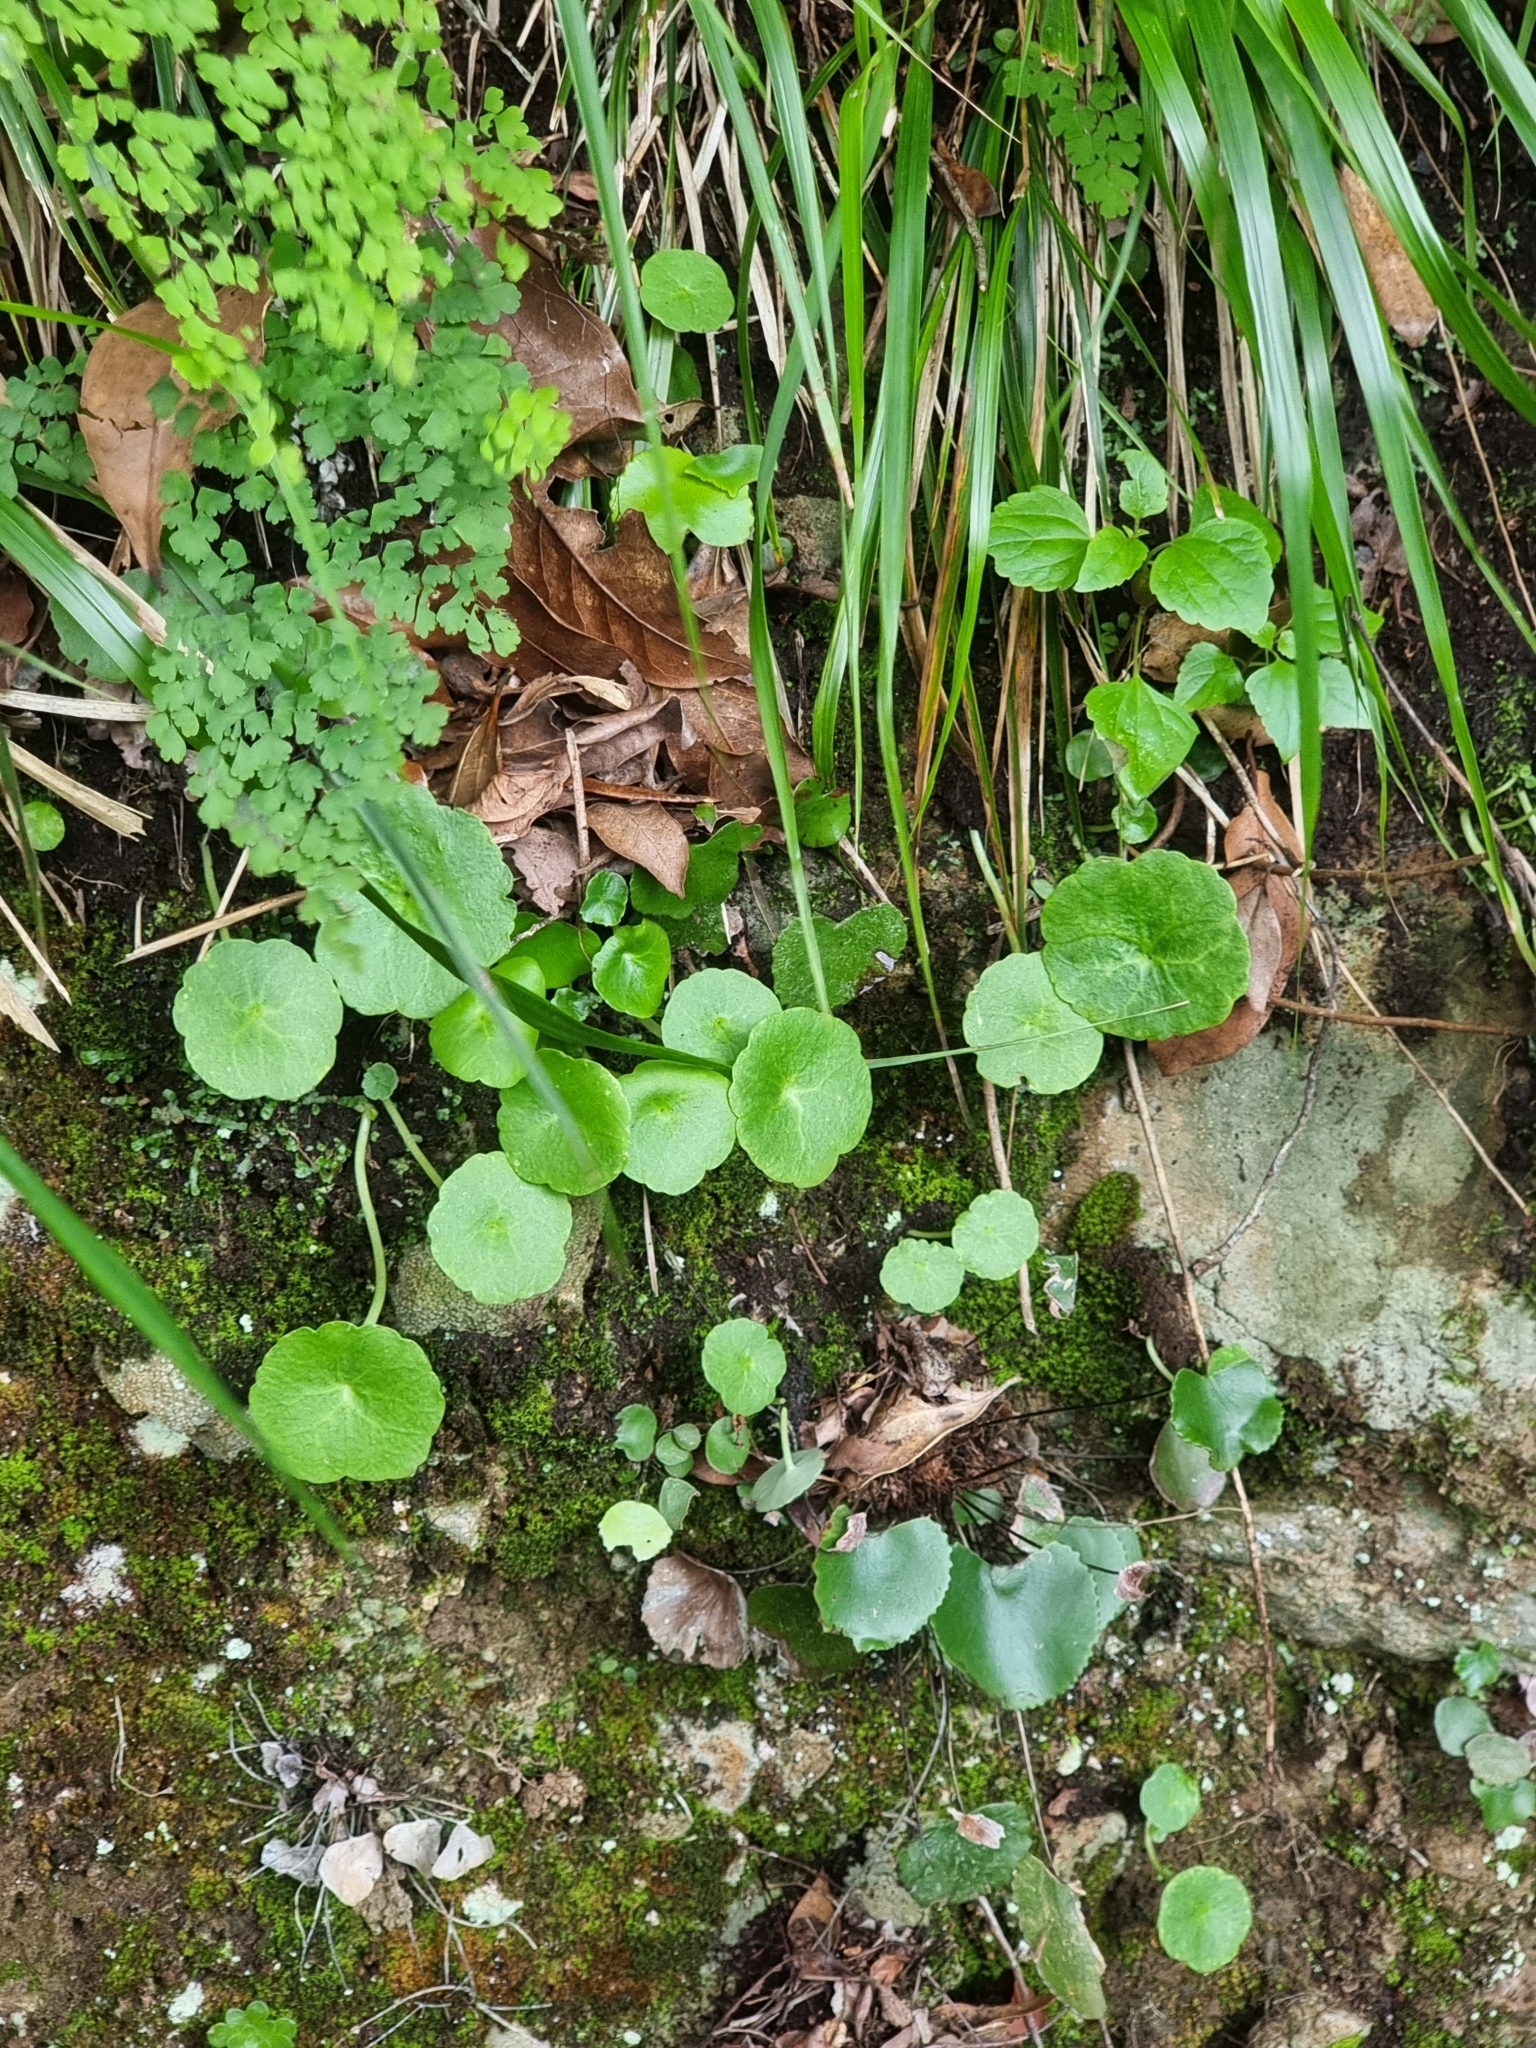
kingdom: Plantae
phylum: Tracheophyta
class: Magnoliopsida
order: Saxifragales
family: Crassulaceae
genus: Umbilicus
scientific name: Umbilicus rupestris
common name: Navelwort
